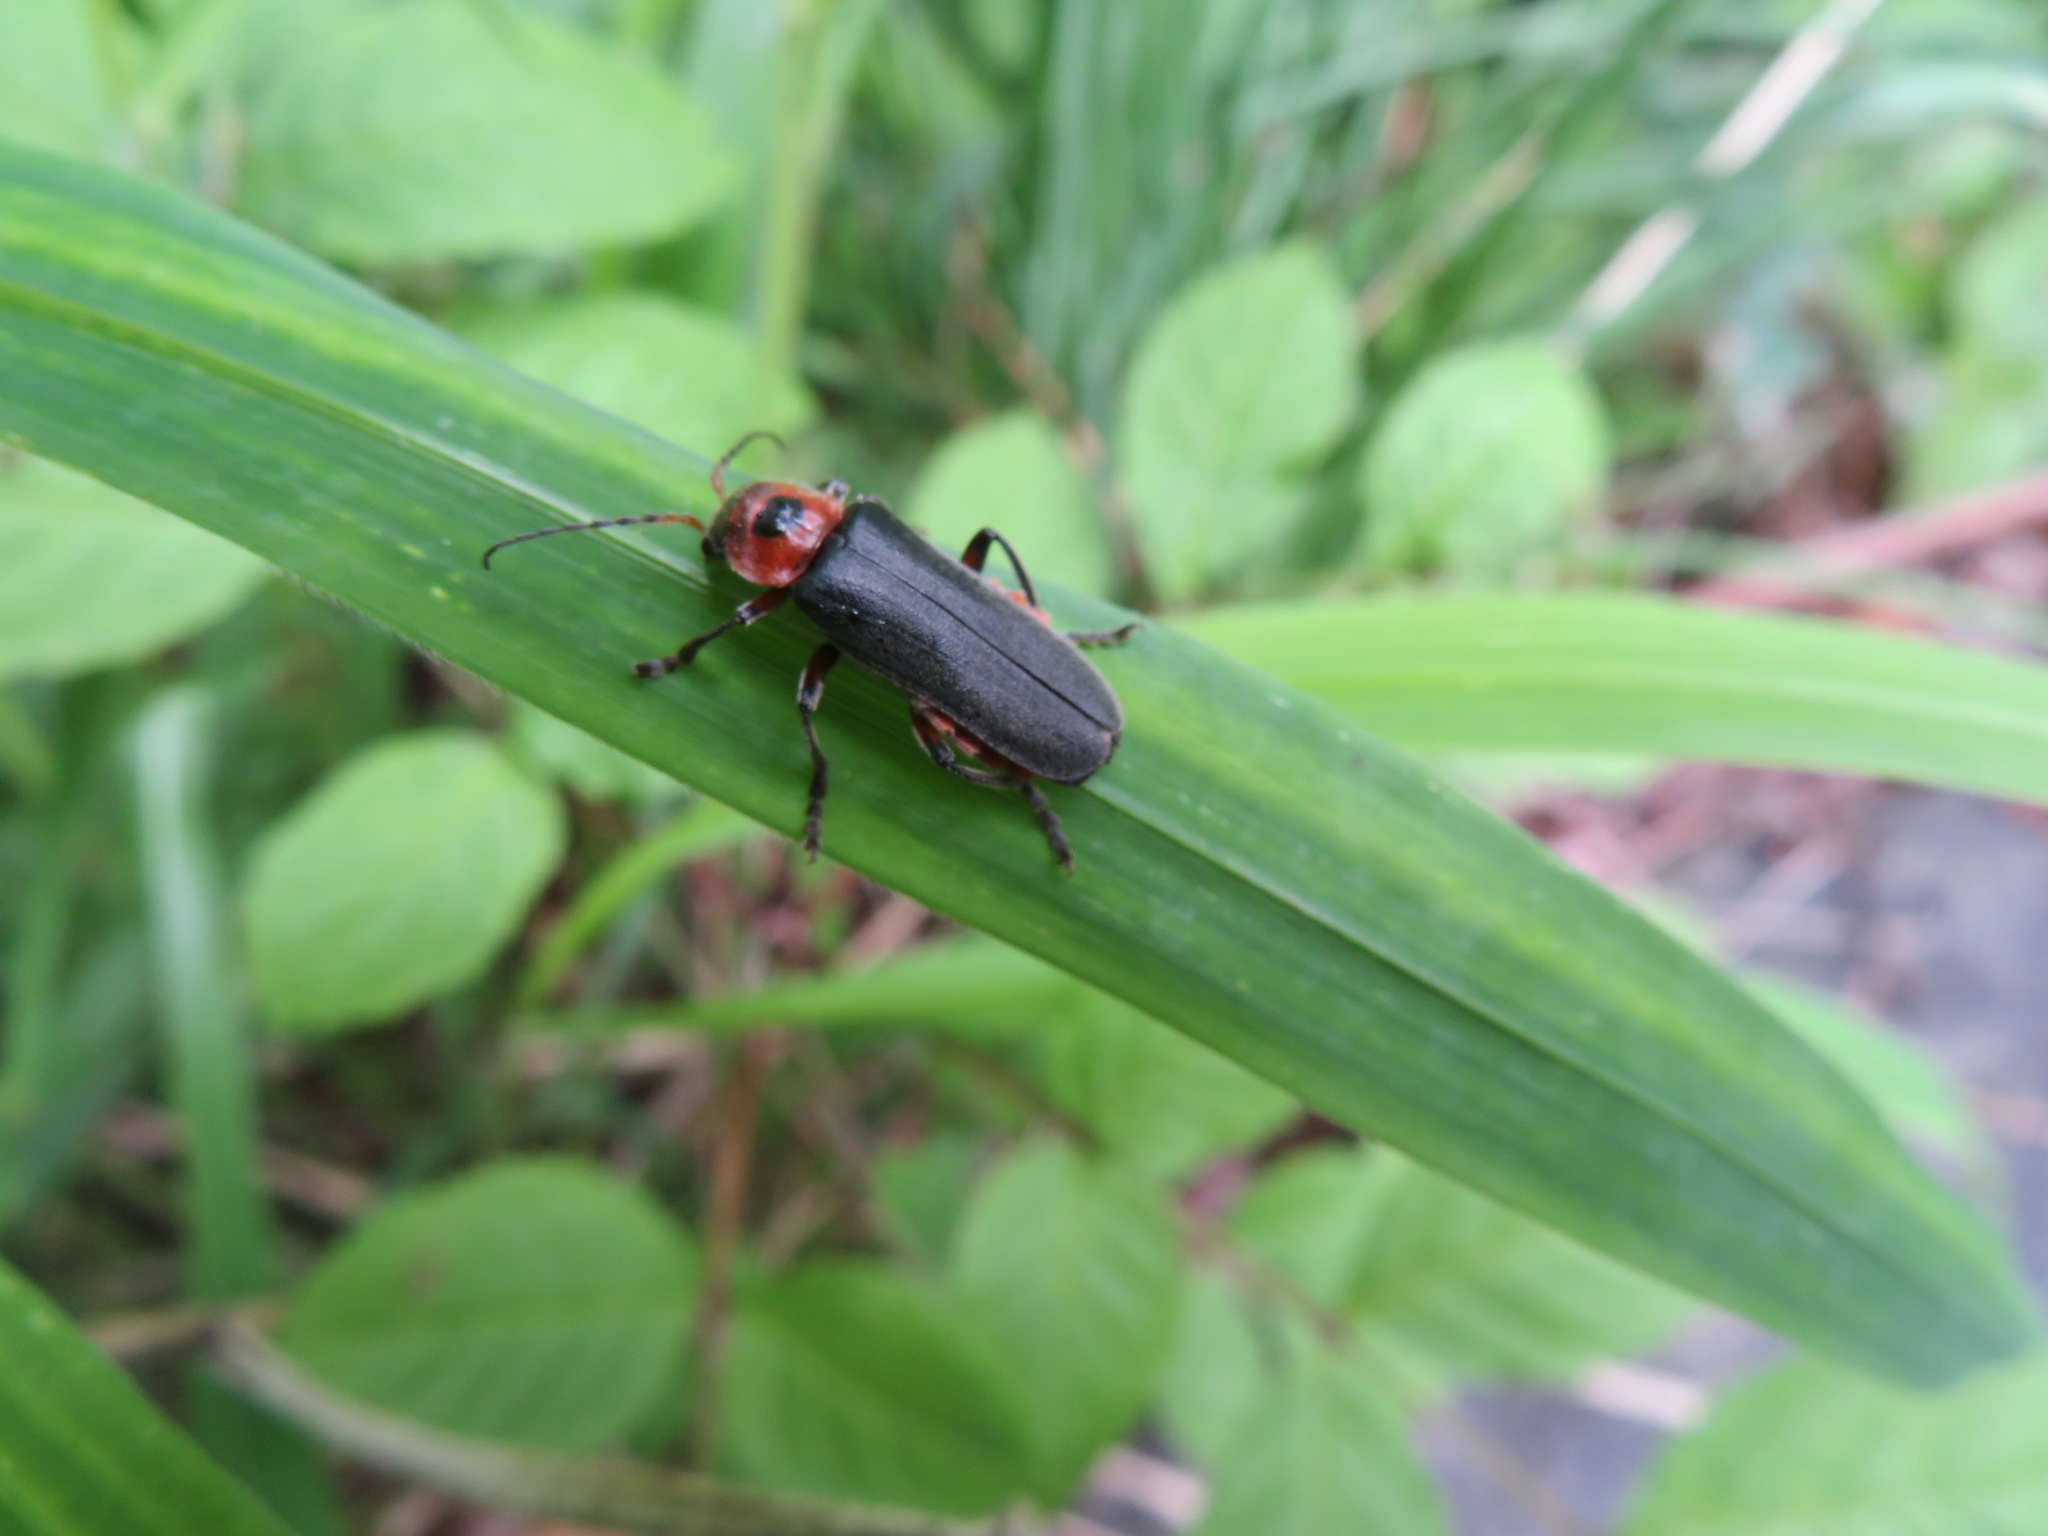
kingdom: Animalia
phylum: Arthropoda
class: Insecta
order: Coleoptera
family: Cantharidae
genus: Cantharis
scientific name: Cantharis rustica
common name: Soldier beetle
